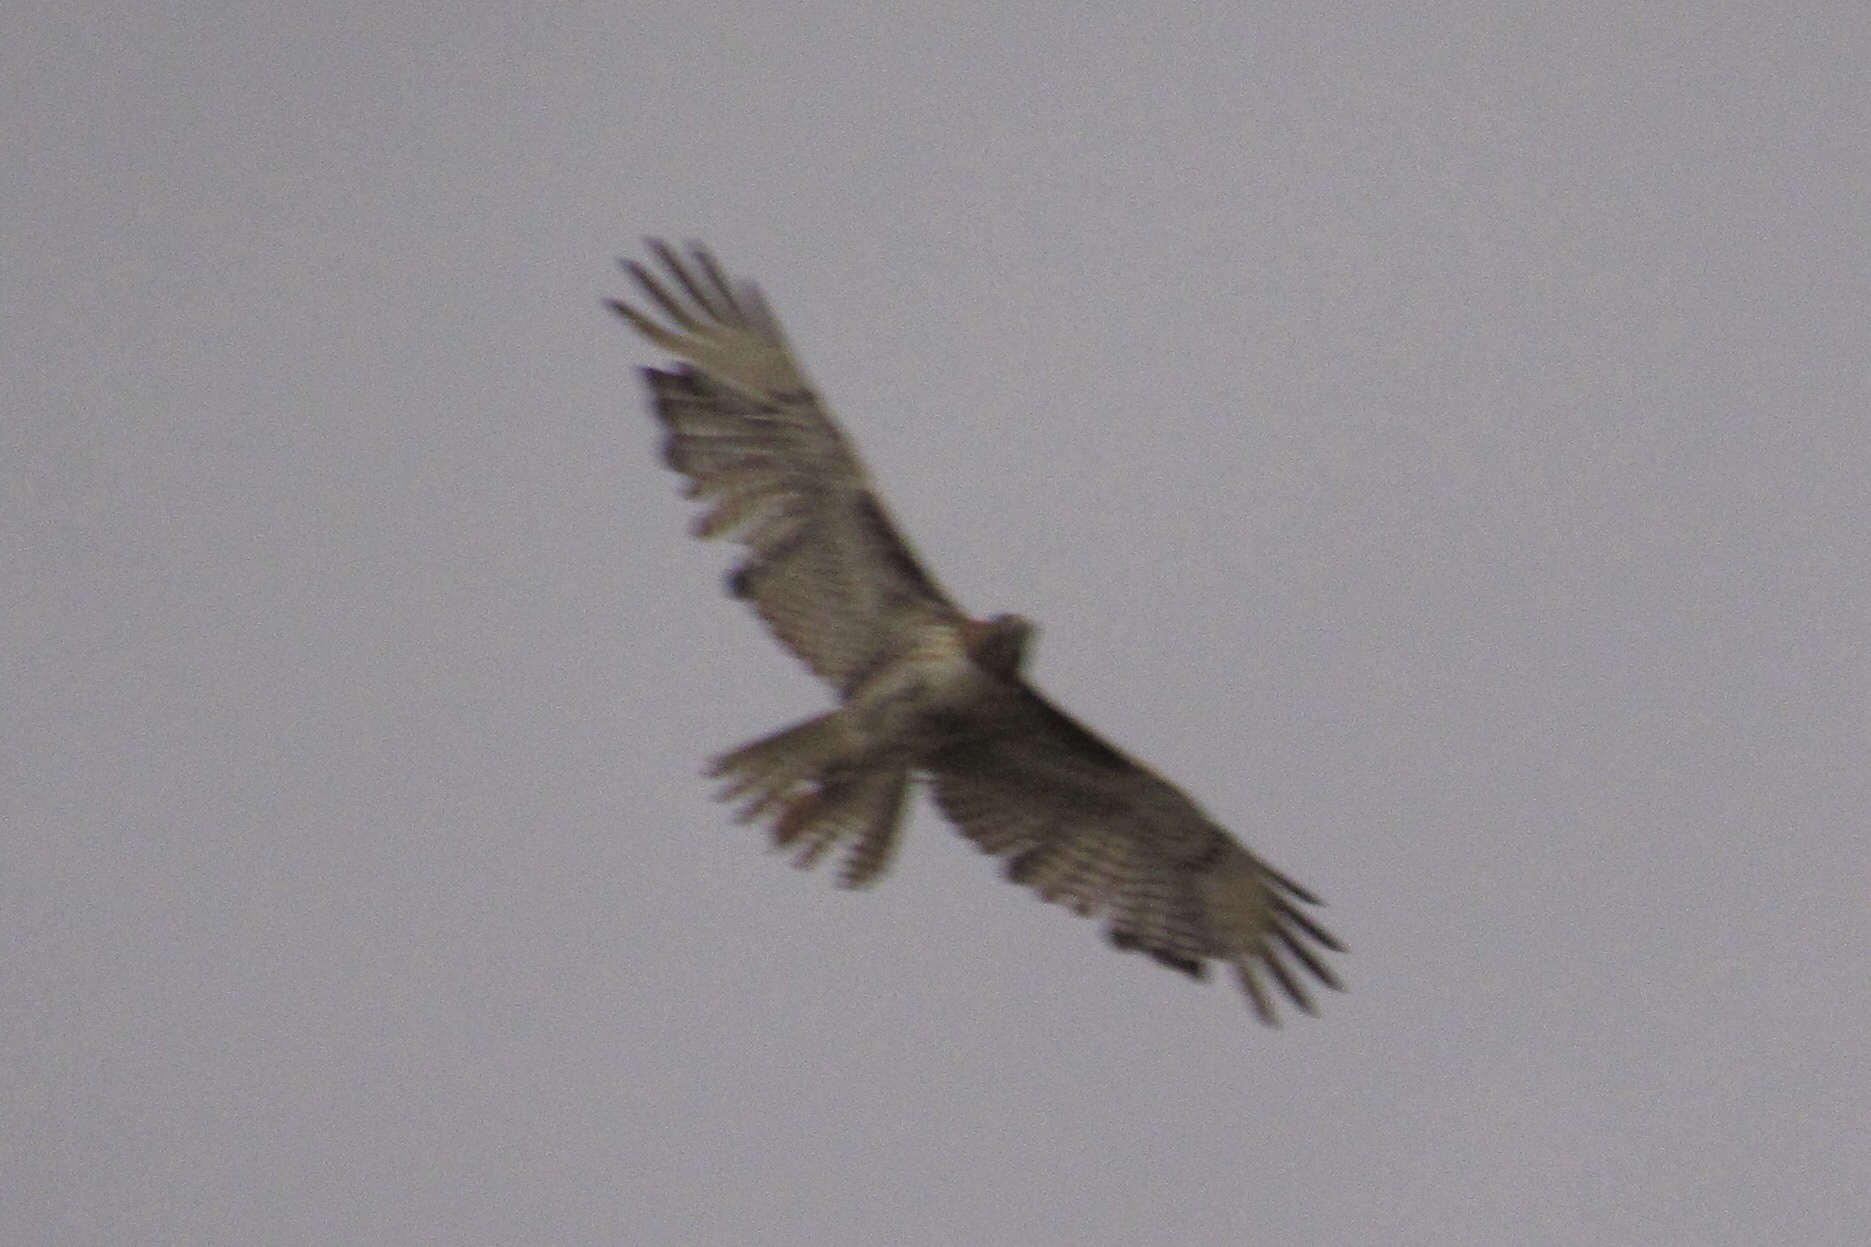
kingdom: Animalia
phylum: Chordata
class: Aves
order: Accipitriformes
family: Accipitridae
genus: Buteo
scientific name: Buteo jamaicensis
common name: Red-tailed hawk
